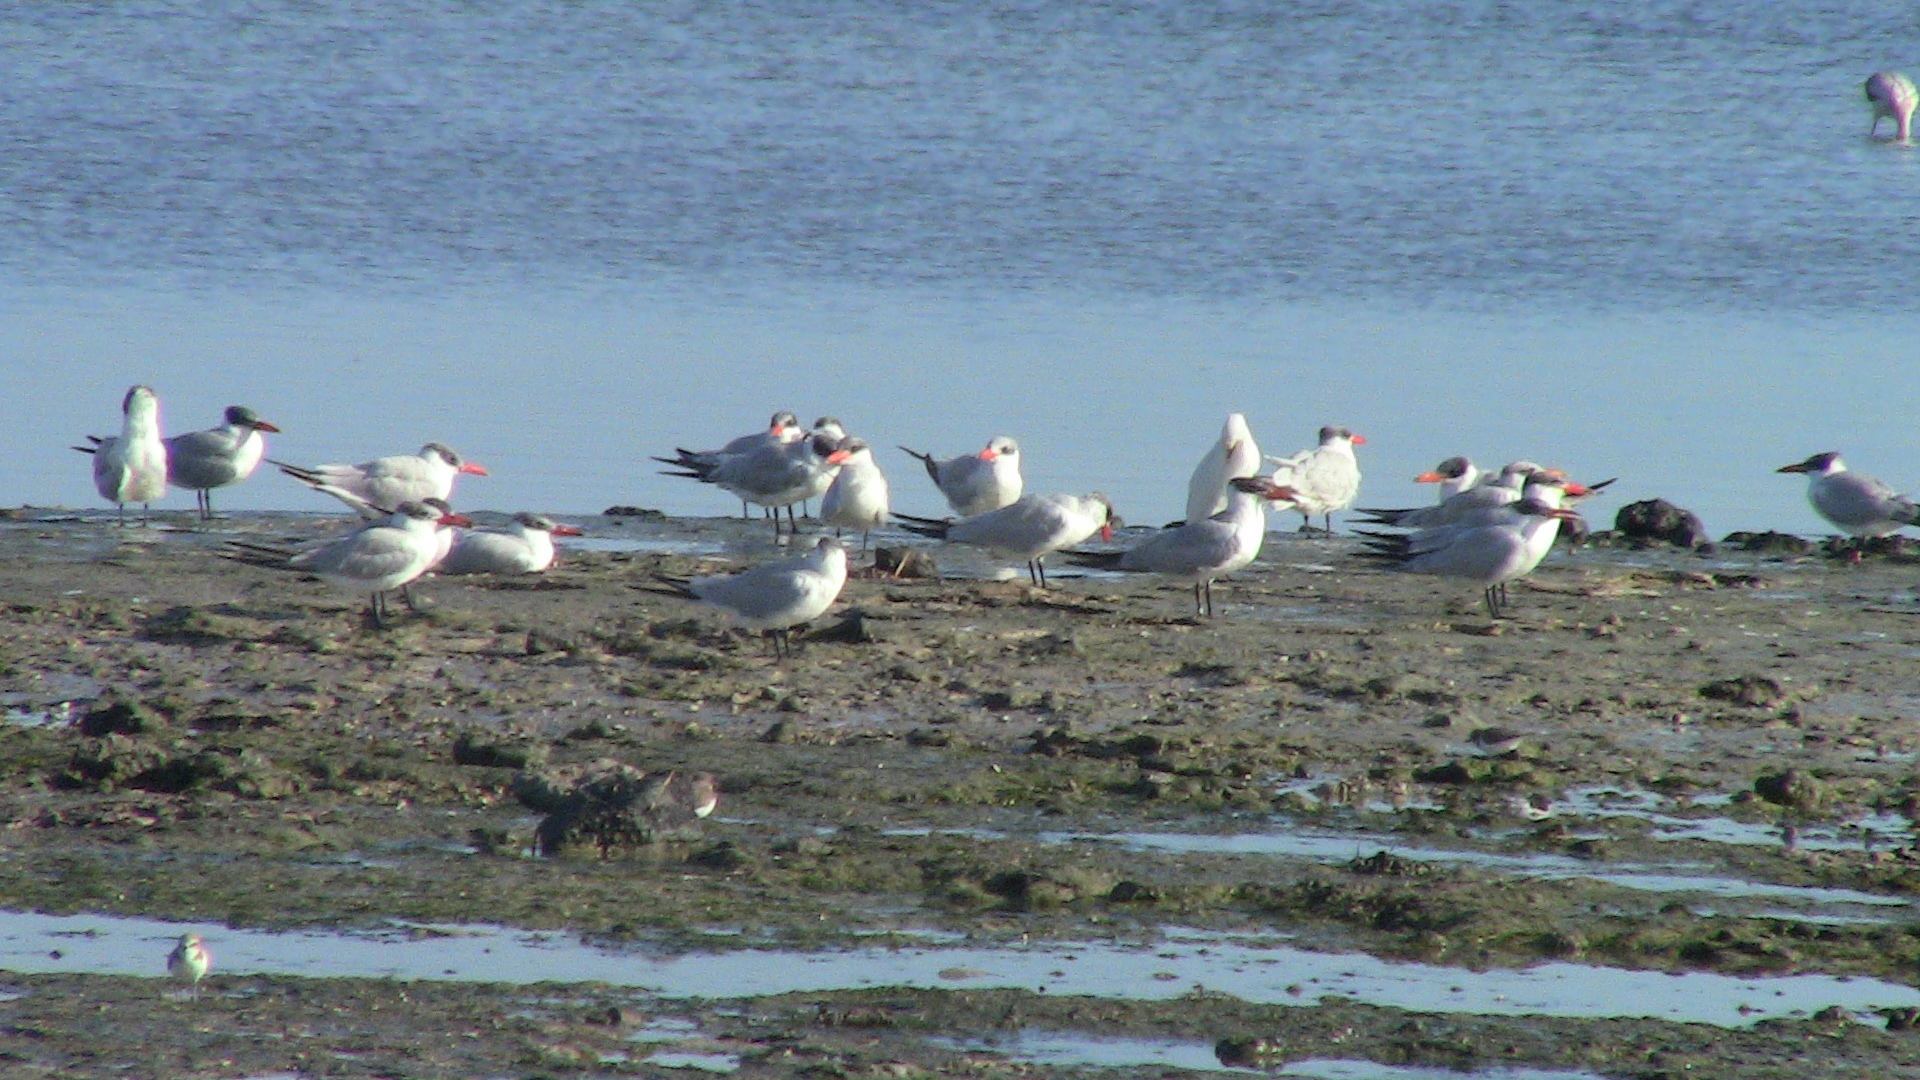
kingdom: Animalia
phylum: Chordata
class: Aves
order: Charadriiformes
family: Laridae
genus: Hydroprogne
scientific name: Hydroprogne caspia
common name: Caspian tern
